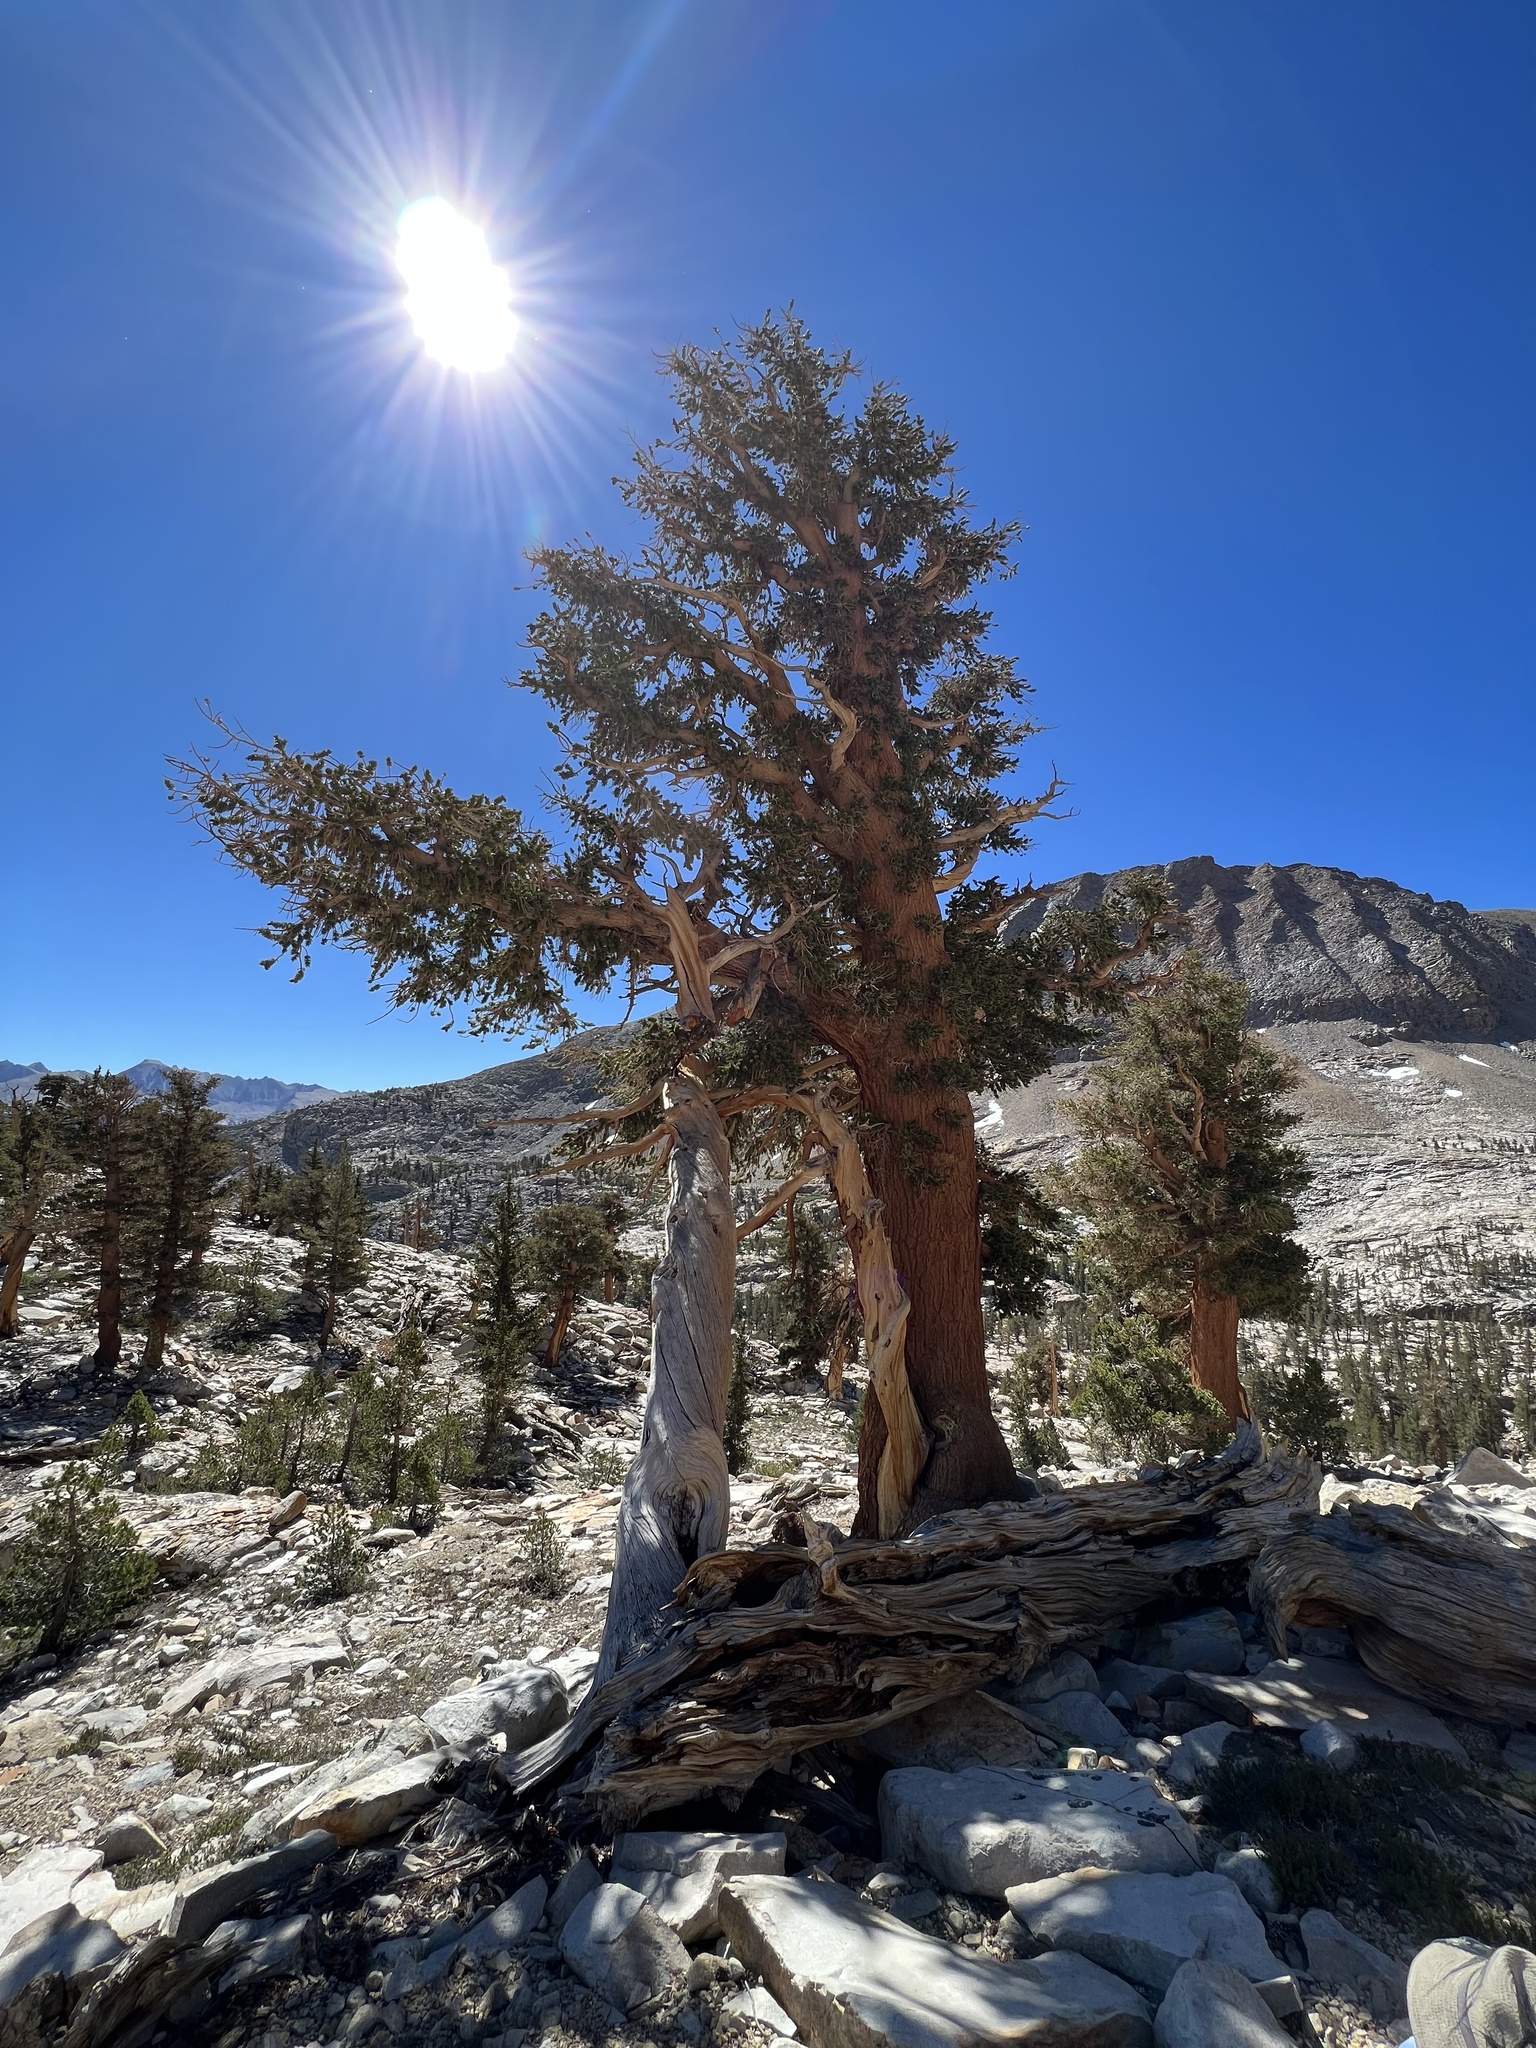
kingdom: Plantae
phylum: Tracheophyta
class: Pinopsida
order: Pinales
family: Pinaceae
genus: Pinus
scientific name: Pinus balfouriana
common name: Foxtail pine
